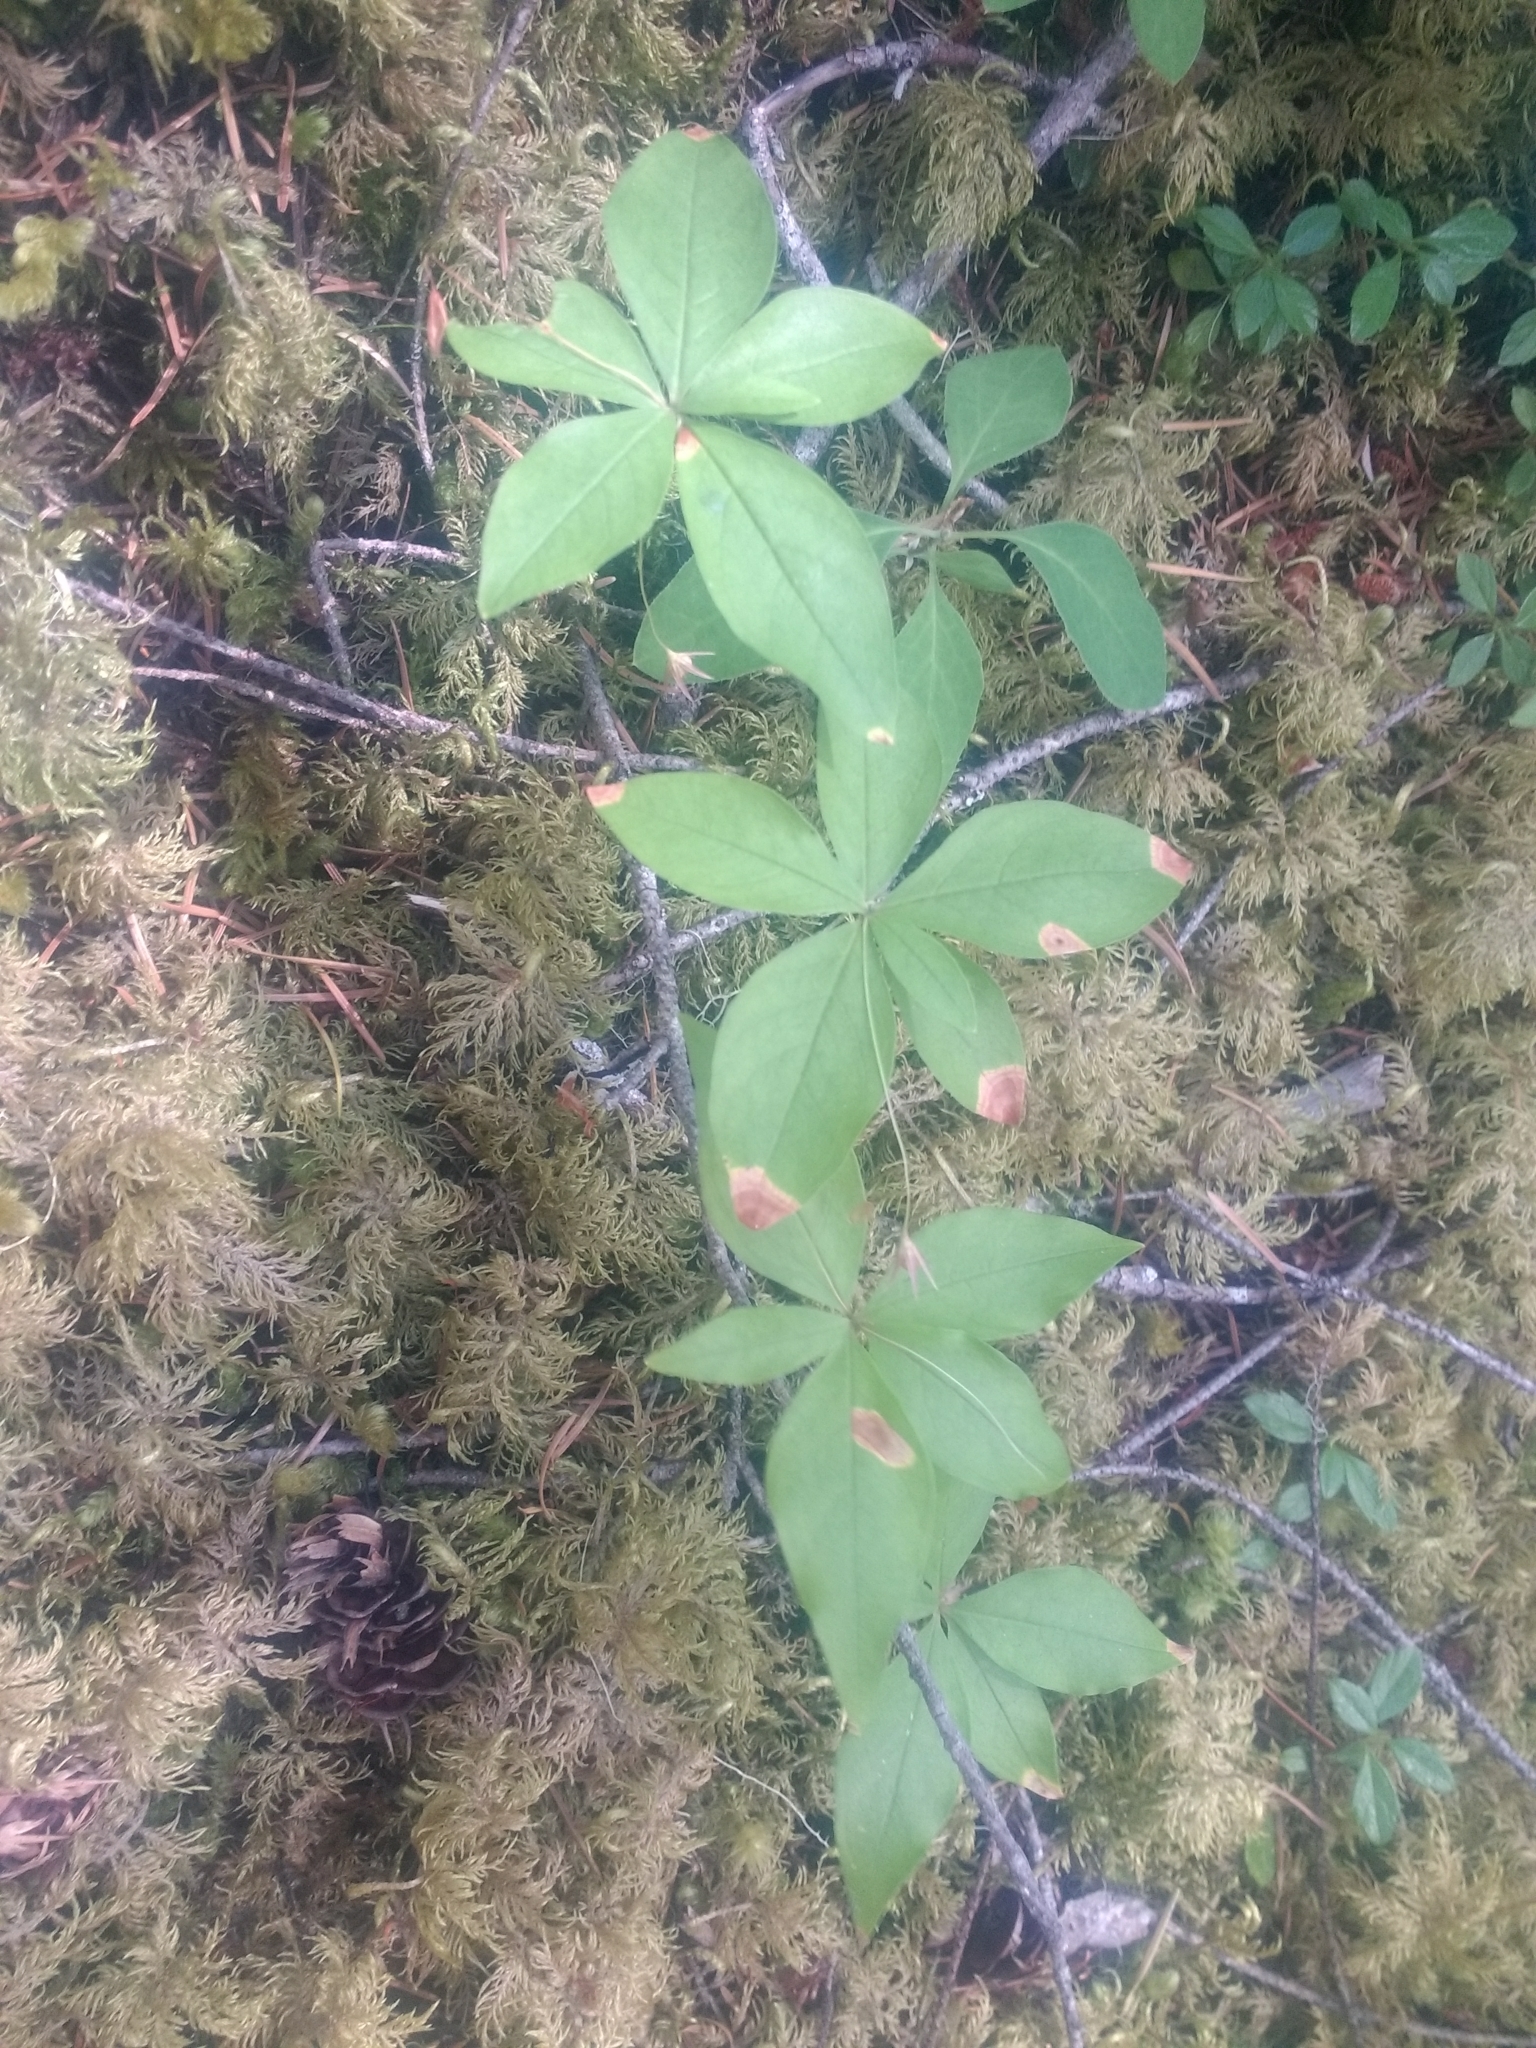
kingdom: Plantae
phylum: Tracheophyta
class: Magnoliopsida
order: Ericales
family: Primulaceae
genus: Lysimachia
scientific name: Lysimachia latifolia
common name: Pacific starflower
